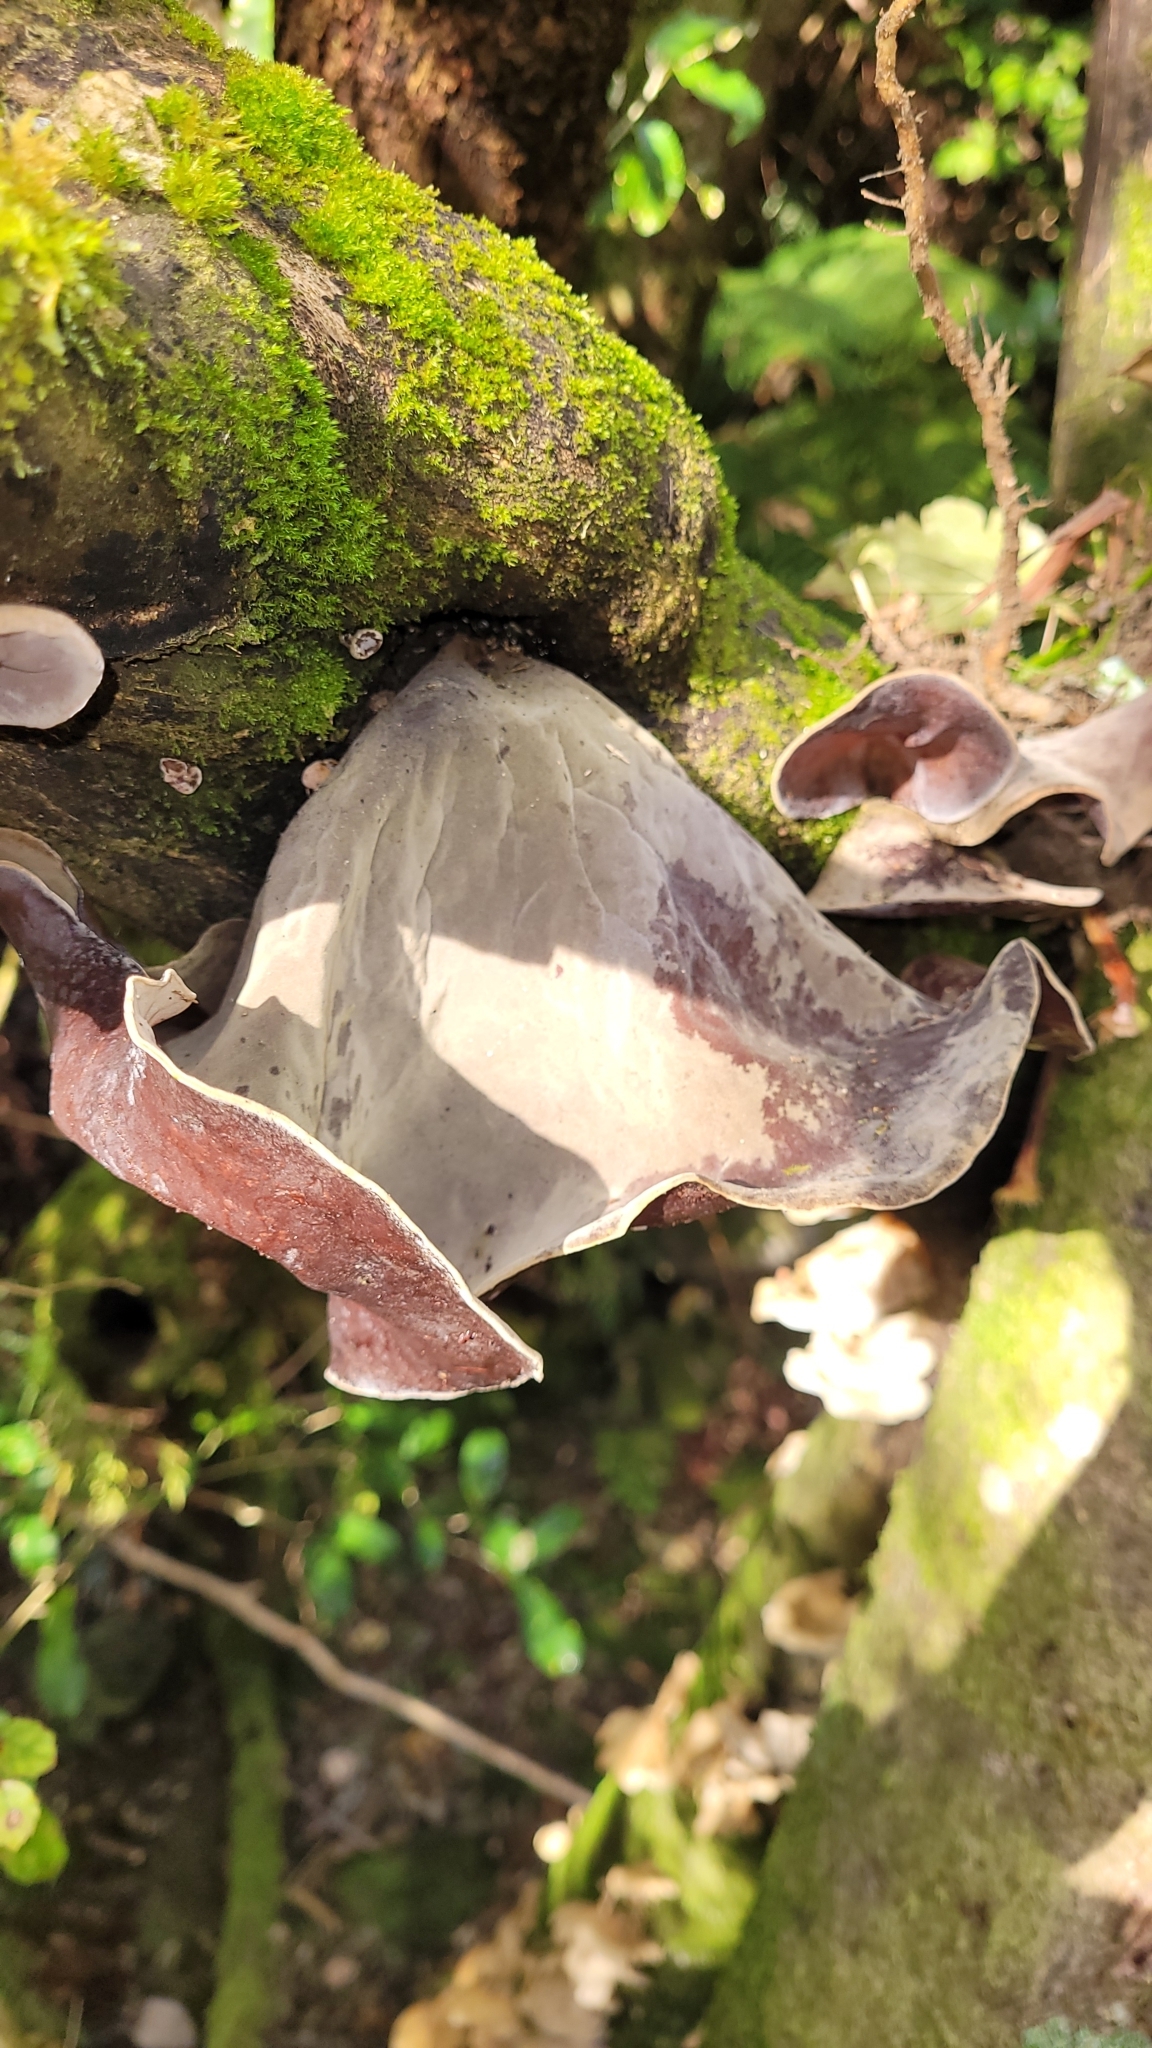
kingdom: Fungi
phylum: Basidiomycota
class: Agaricomycetes
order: Auriculariales
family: Auriculariaceae
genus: Auricularia
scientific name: Auricularia cornea
